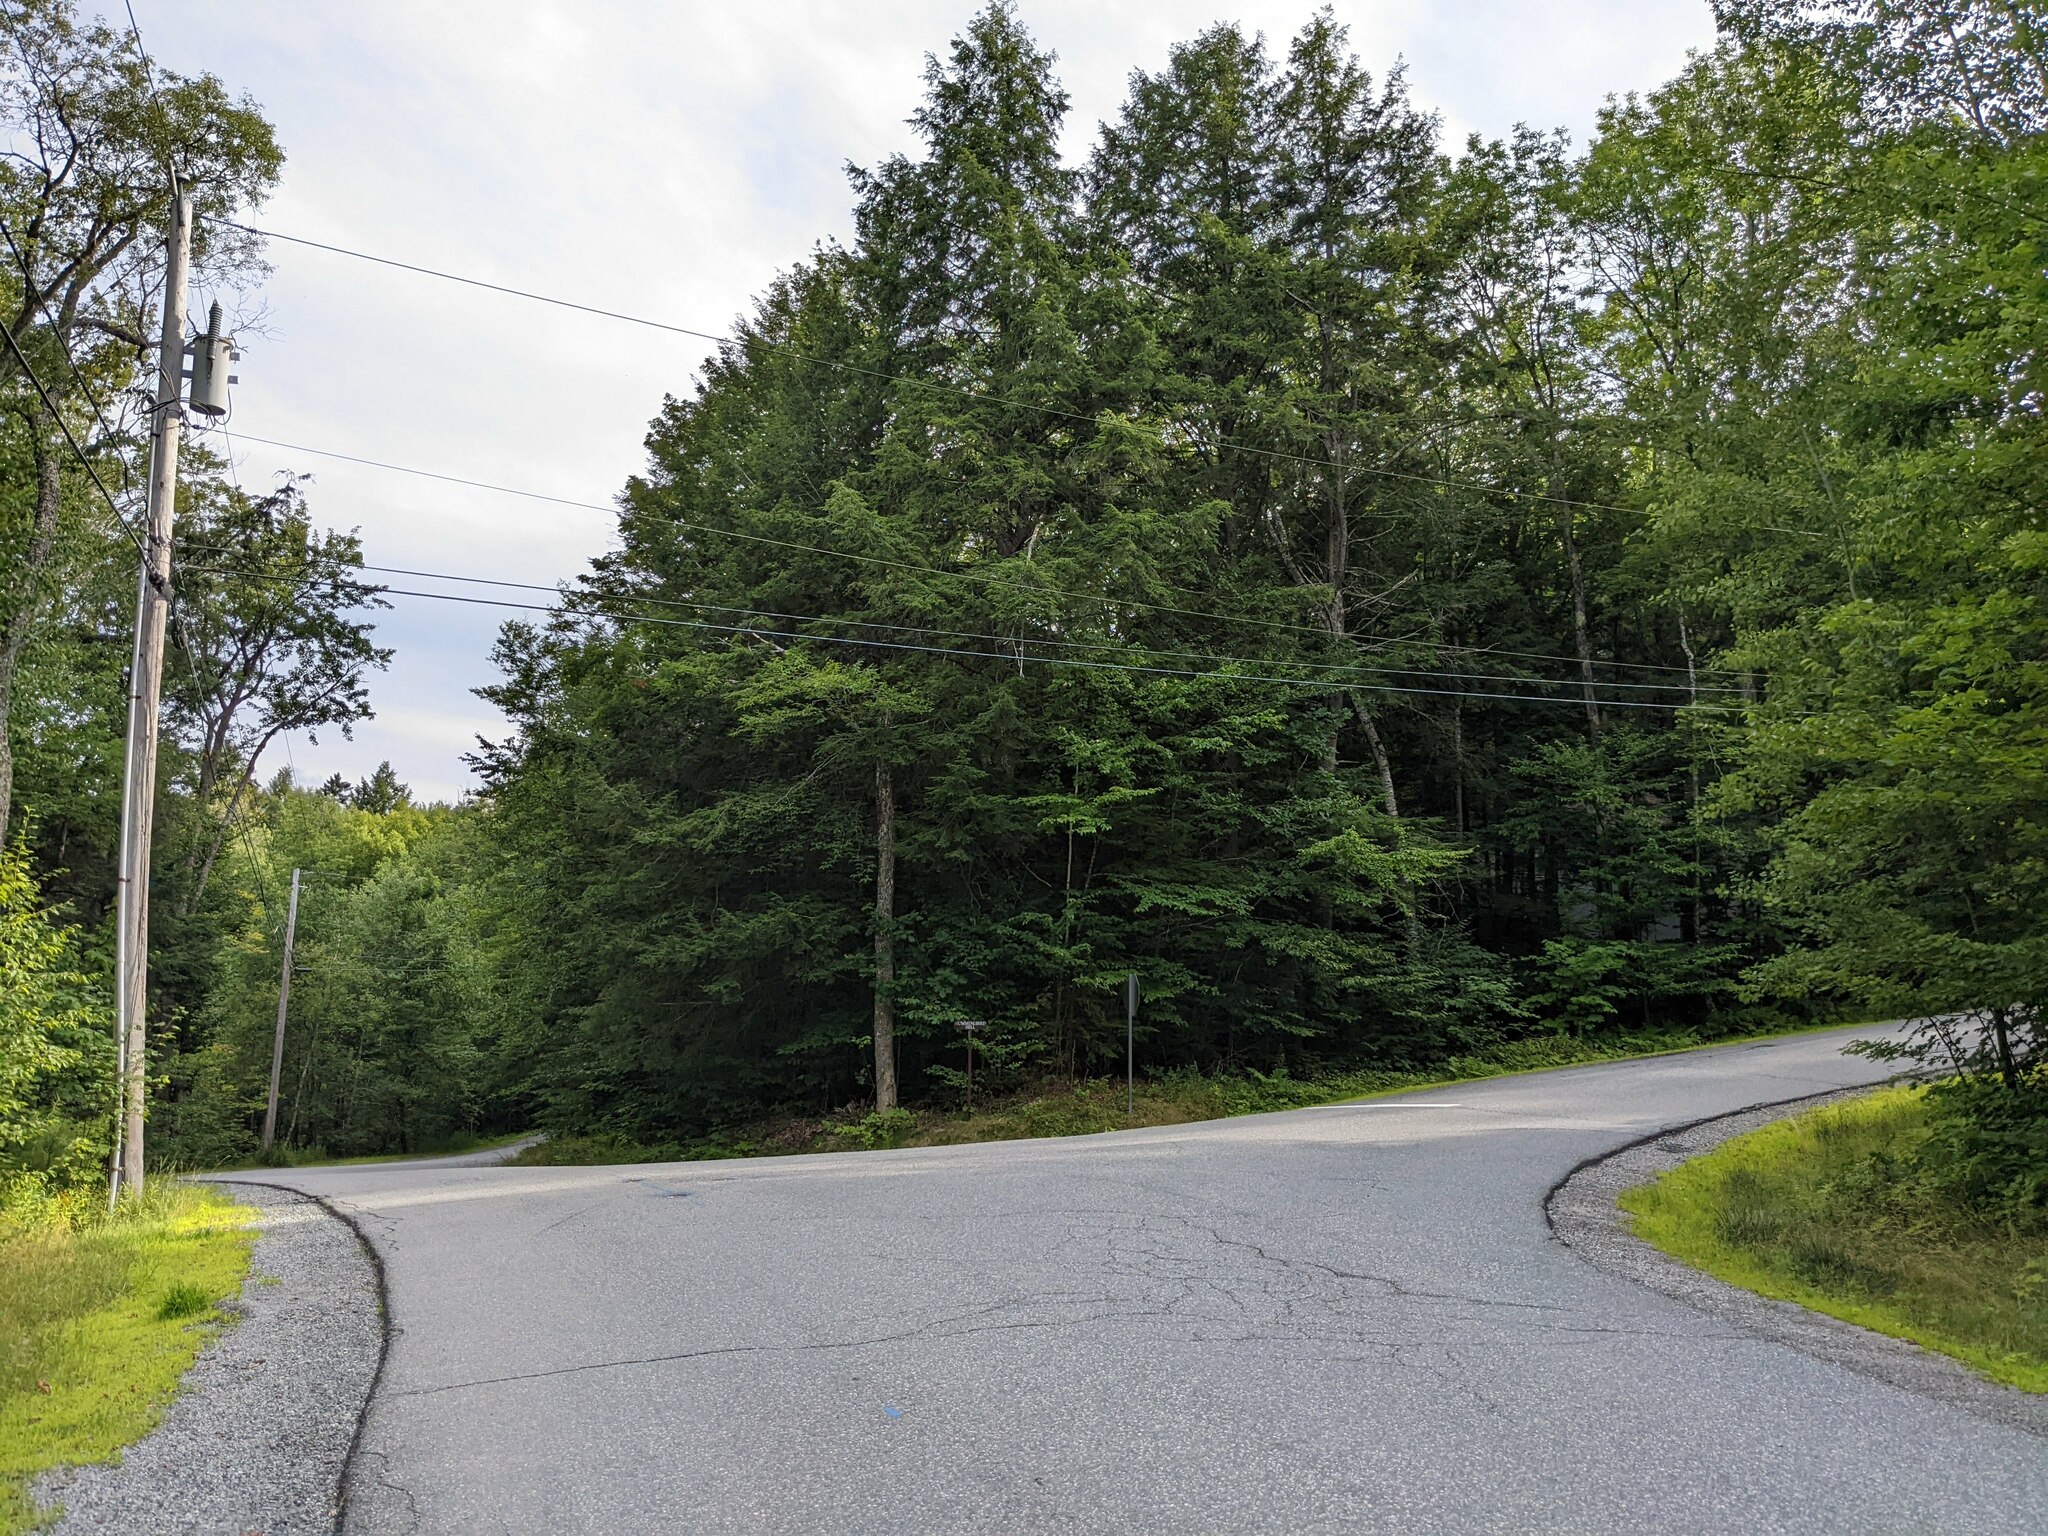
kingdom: Plantae
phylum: Tracheophyta
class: Pinopsida
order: Pinales
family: Pinaceae
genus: Tsuga
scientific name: Tsuga canadensis
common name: Eastern hemlock
